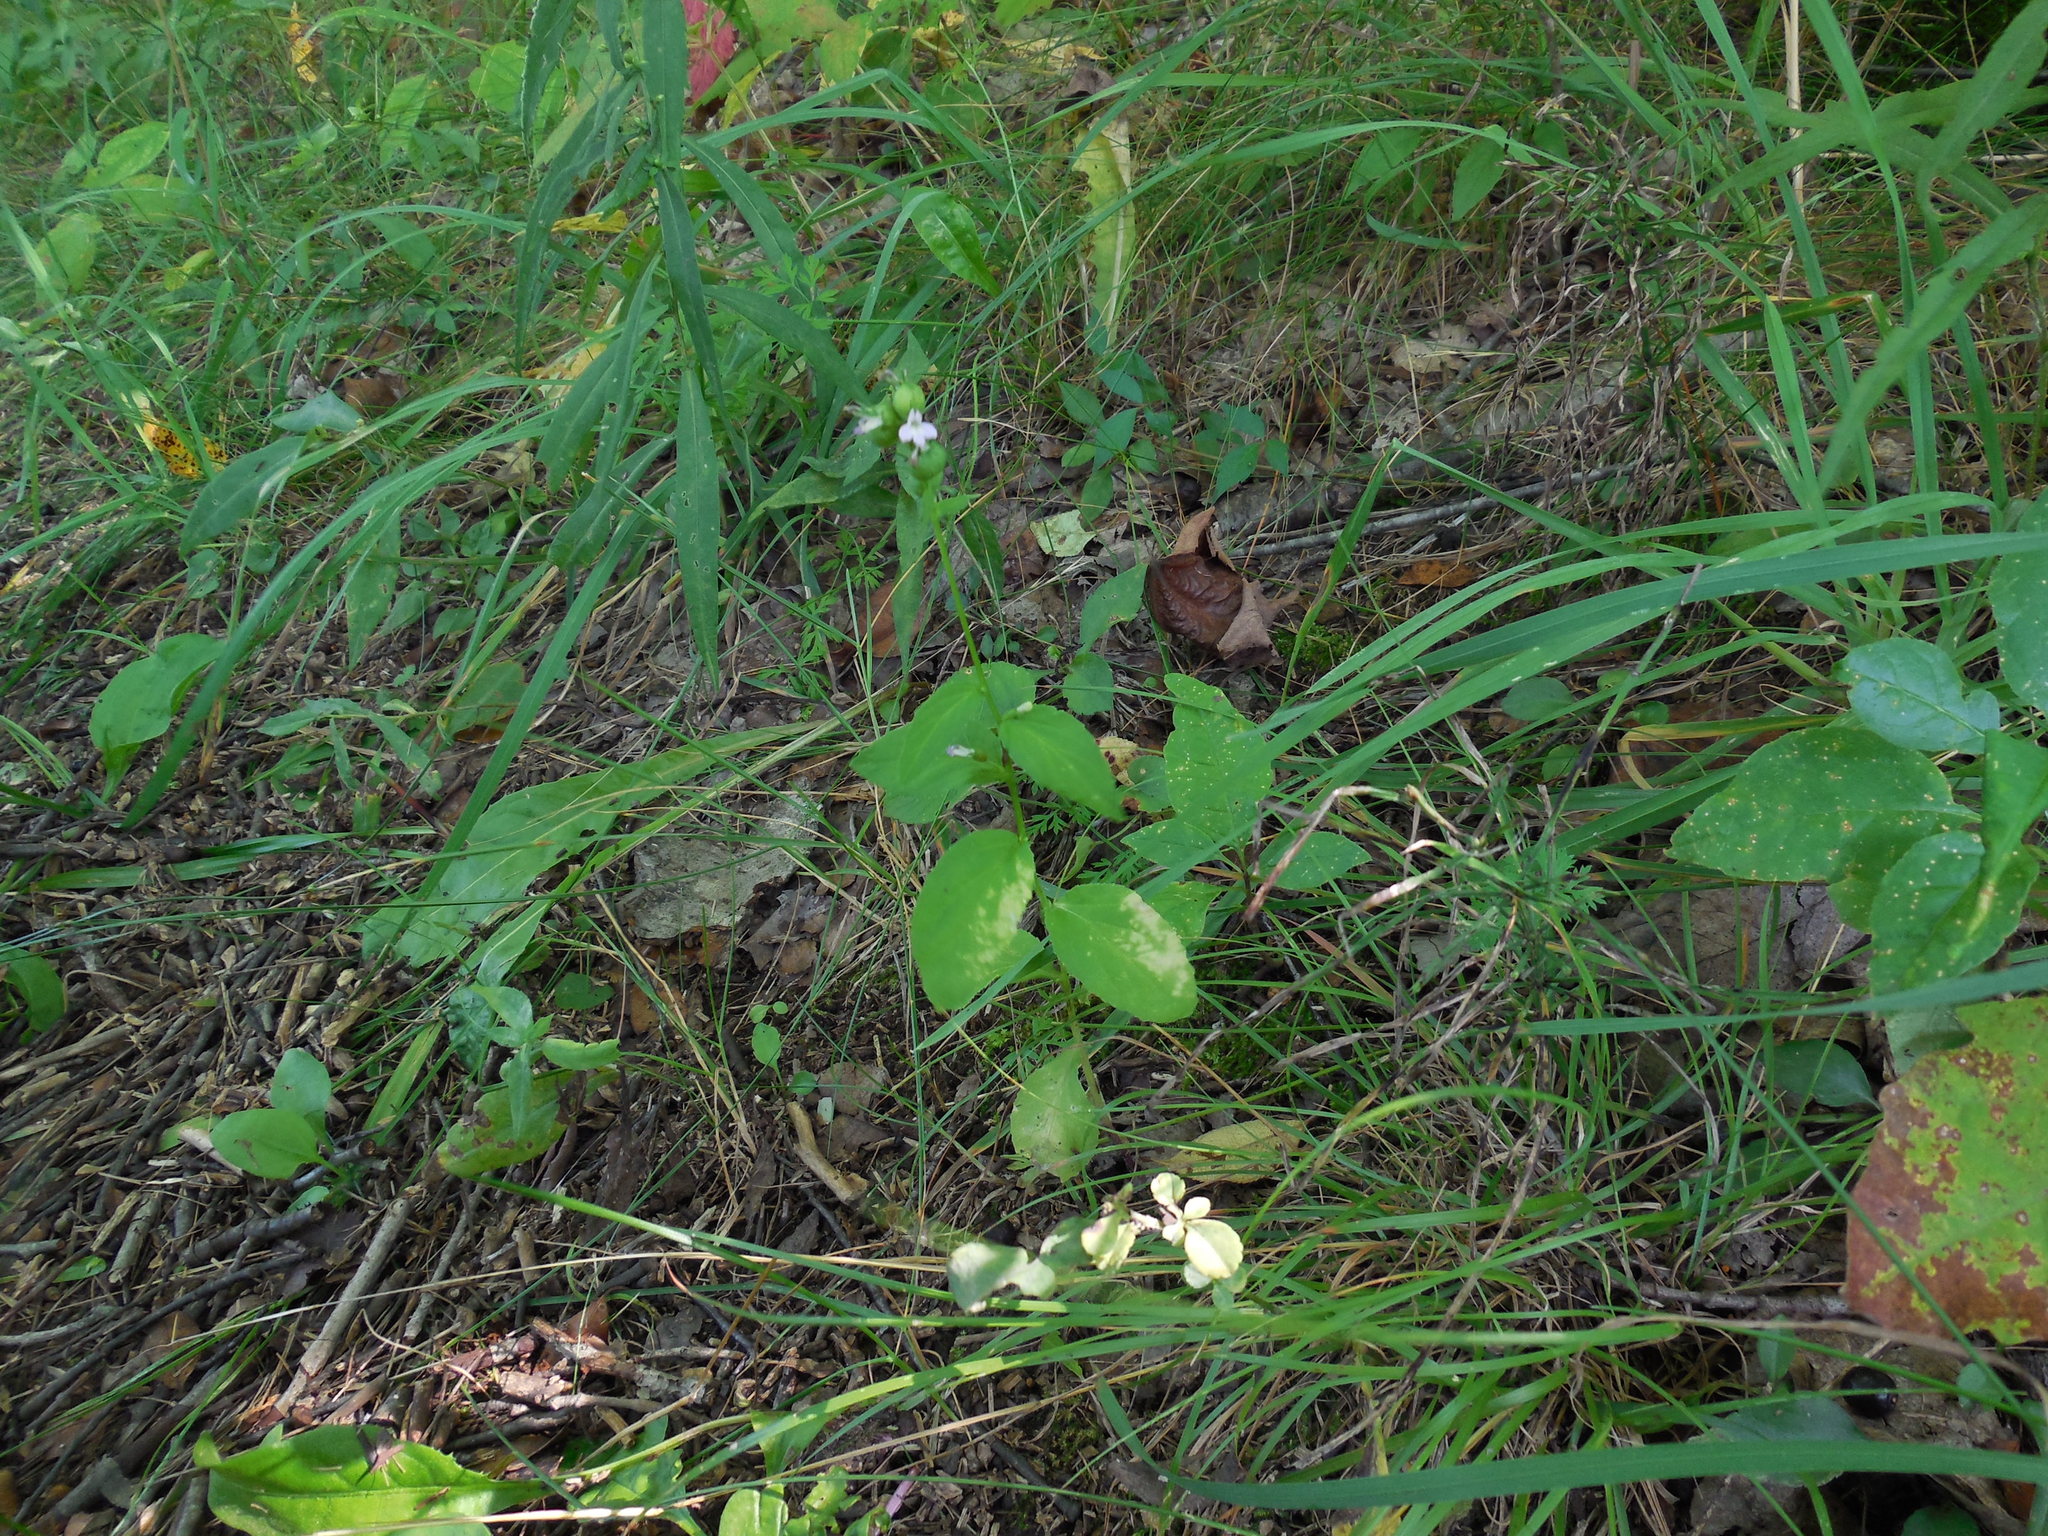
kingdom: Plantae
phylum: Tracheophyta
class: Magnoliopsida
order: Asterales
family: Campanulaceae
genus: Lobelia
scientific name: Lobelia inflata
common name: Indian tobacco
